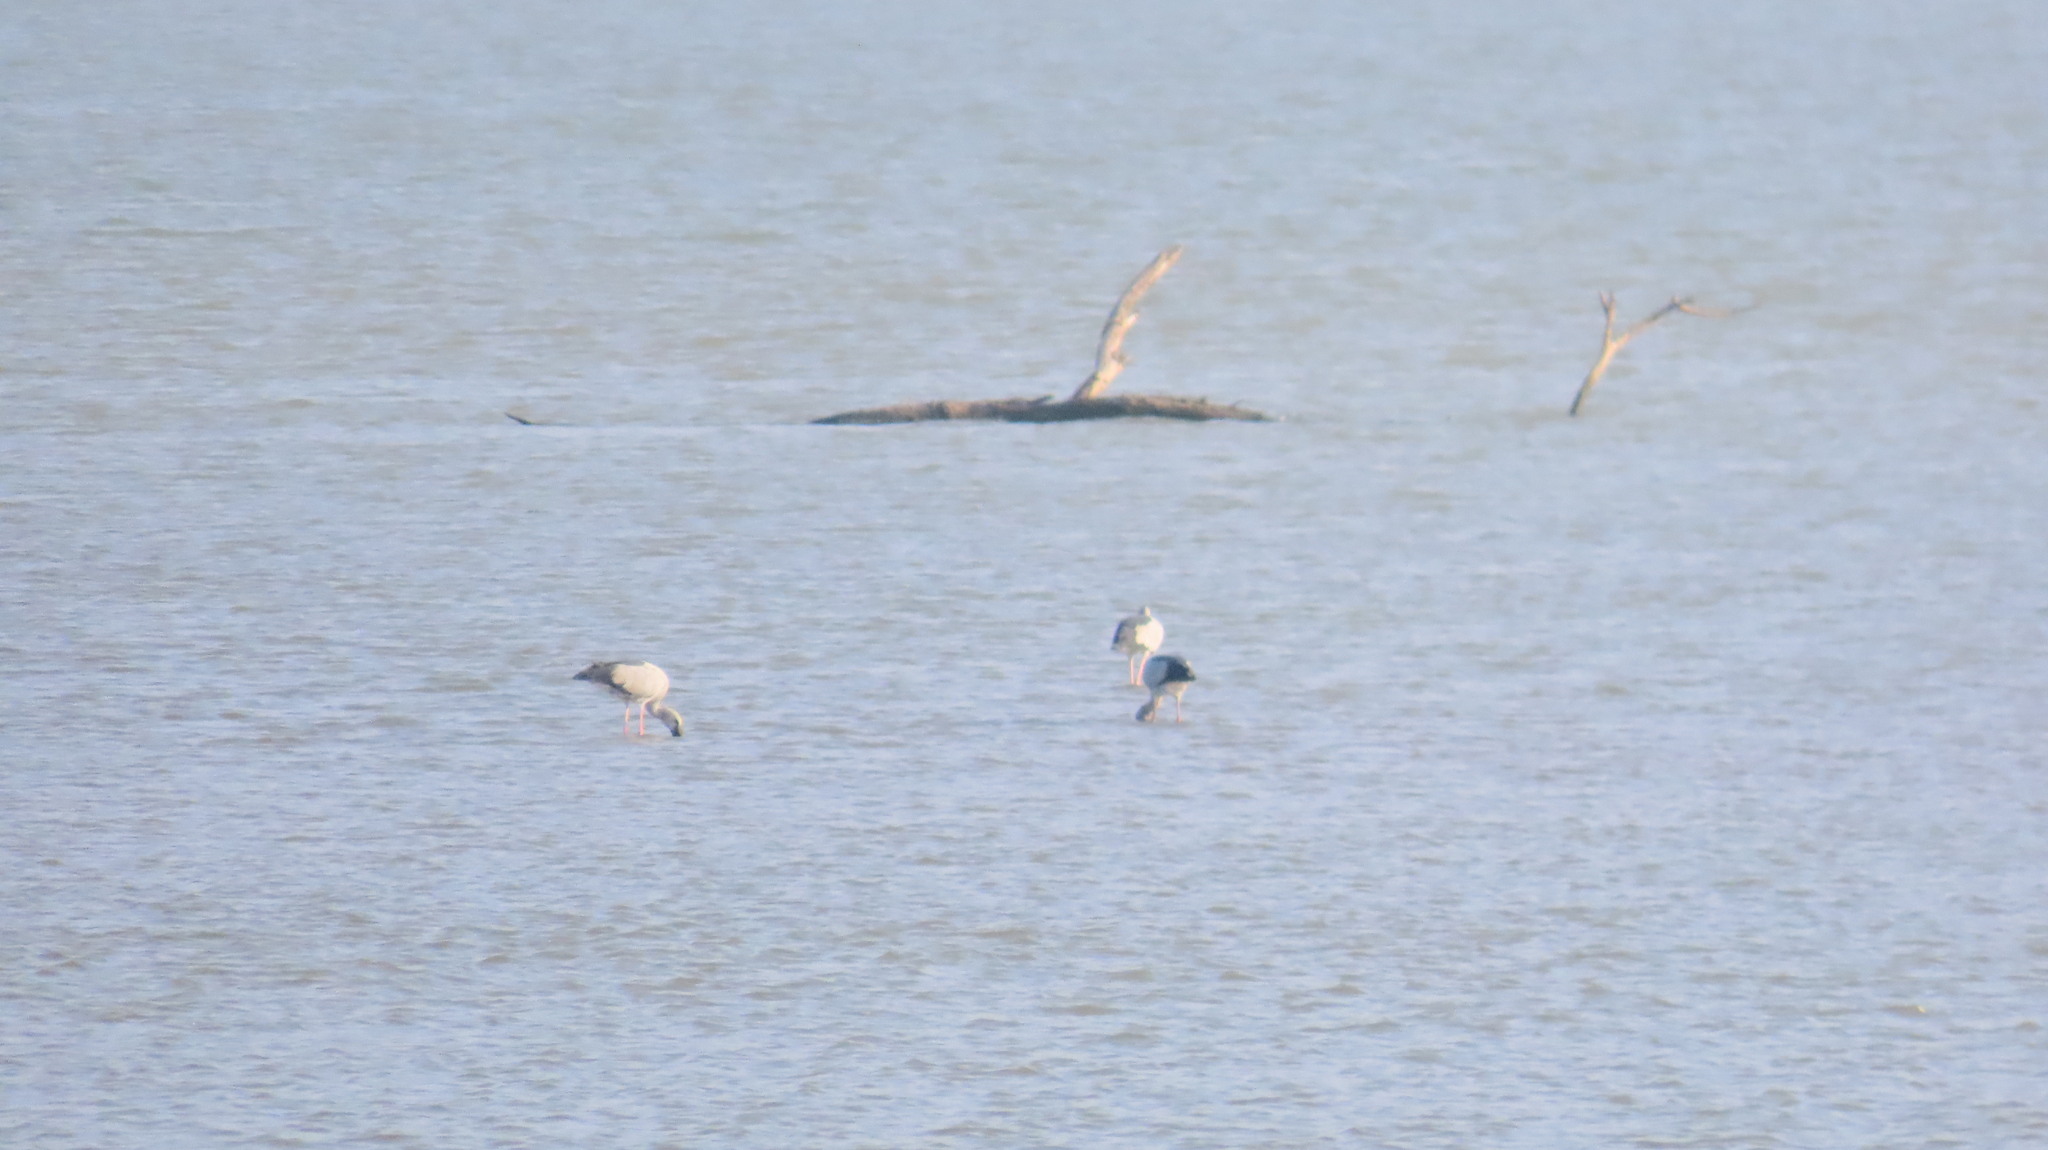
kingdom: Animalia
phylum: Chordata
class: Aves
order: Ciconiiformes
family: Ciconiidae
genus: Anastomus
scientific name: Anastomus oscitans
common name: Asian openbill
